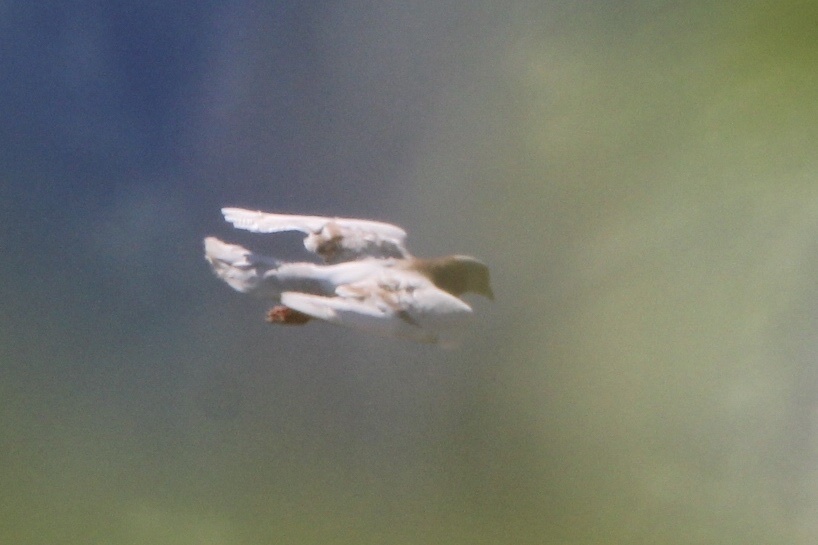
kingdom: Animalia
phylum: Chordata
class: Aves
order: Columbiformes
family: Columbidae
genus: Columba
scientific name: Columba livia
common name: Rock pigeon
